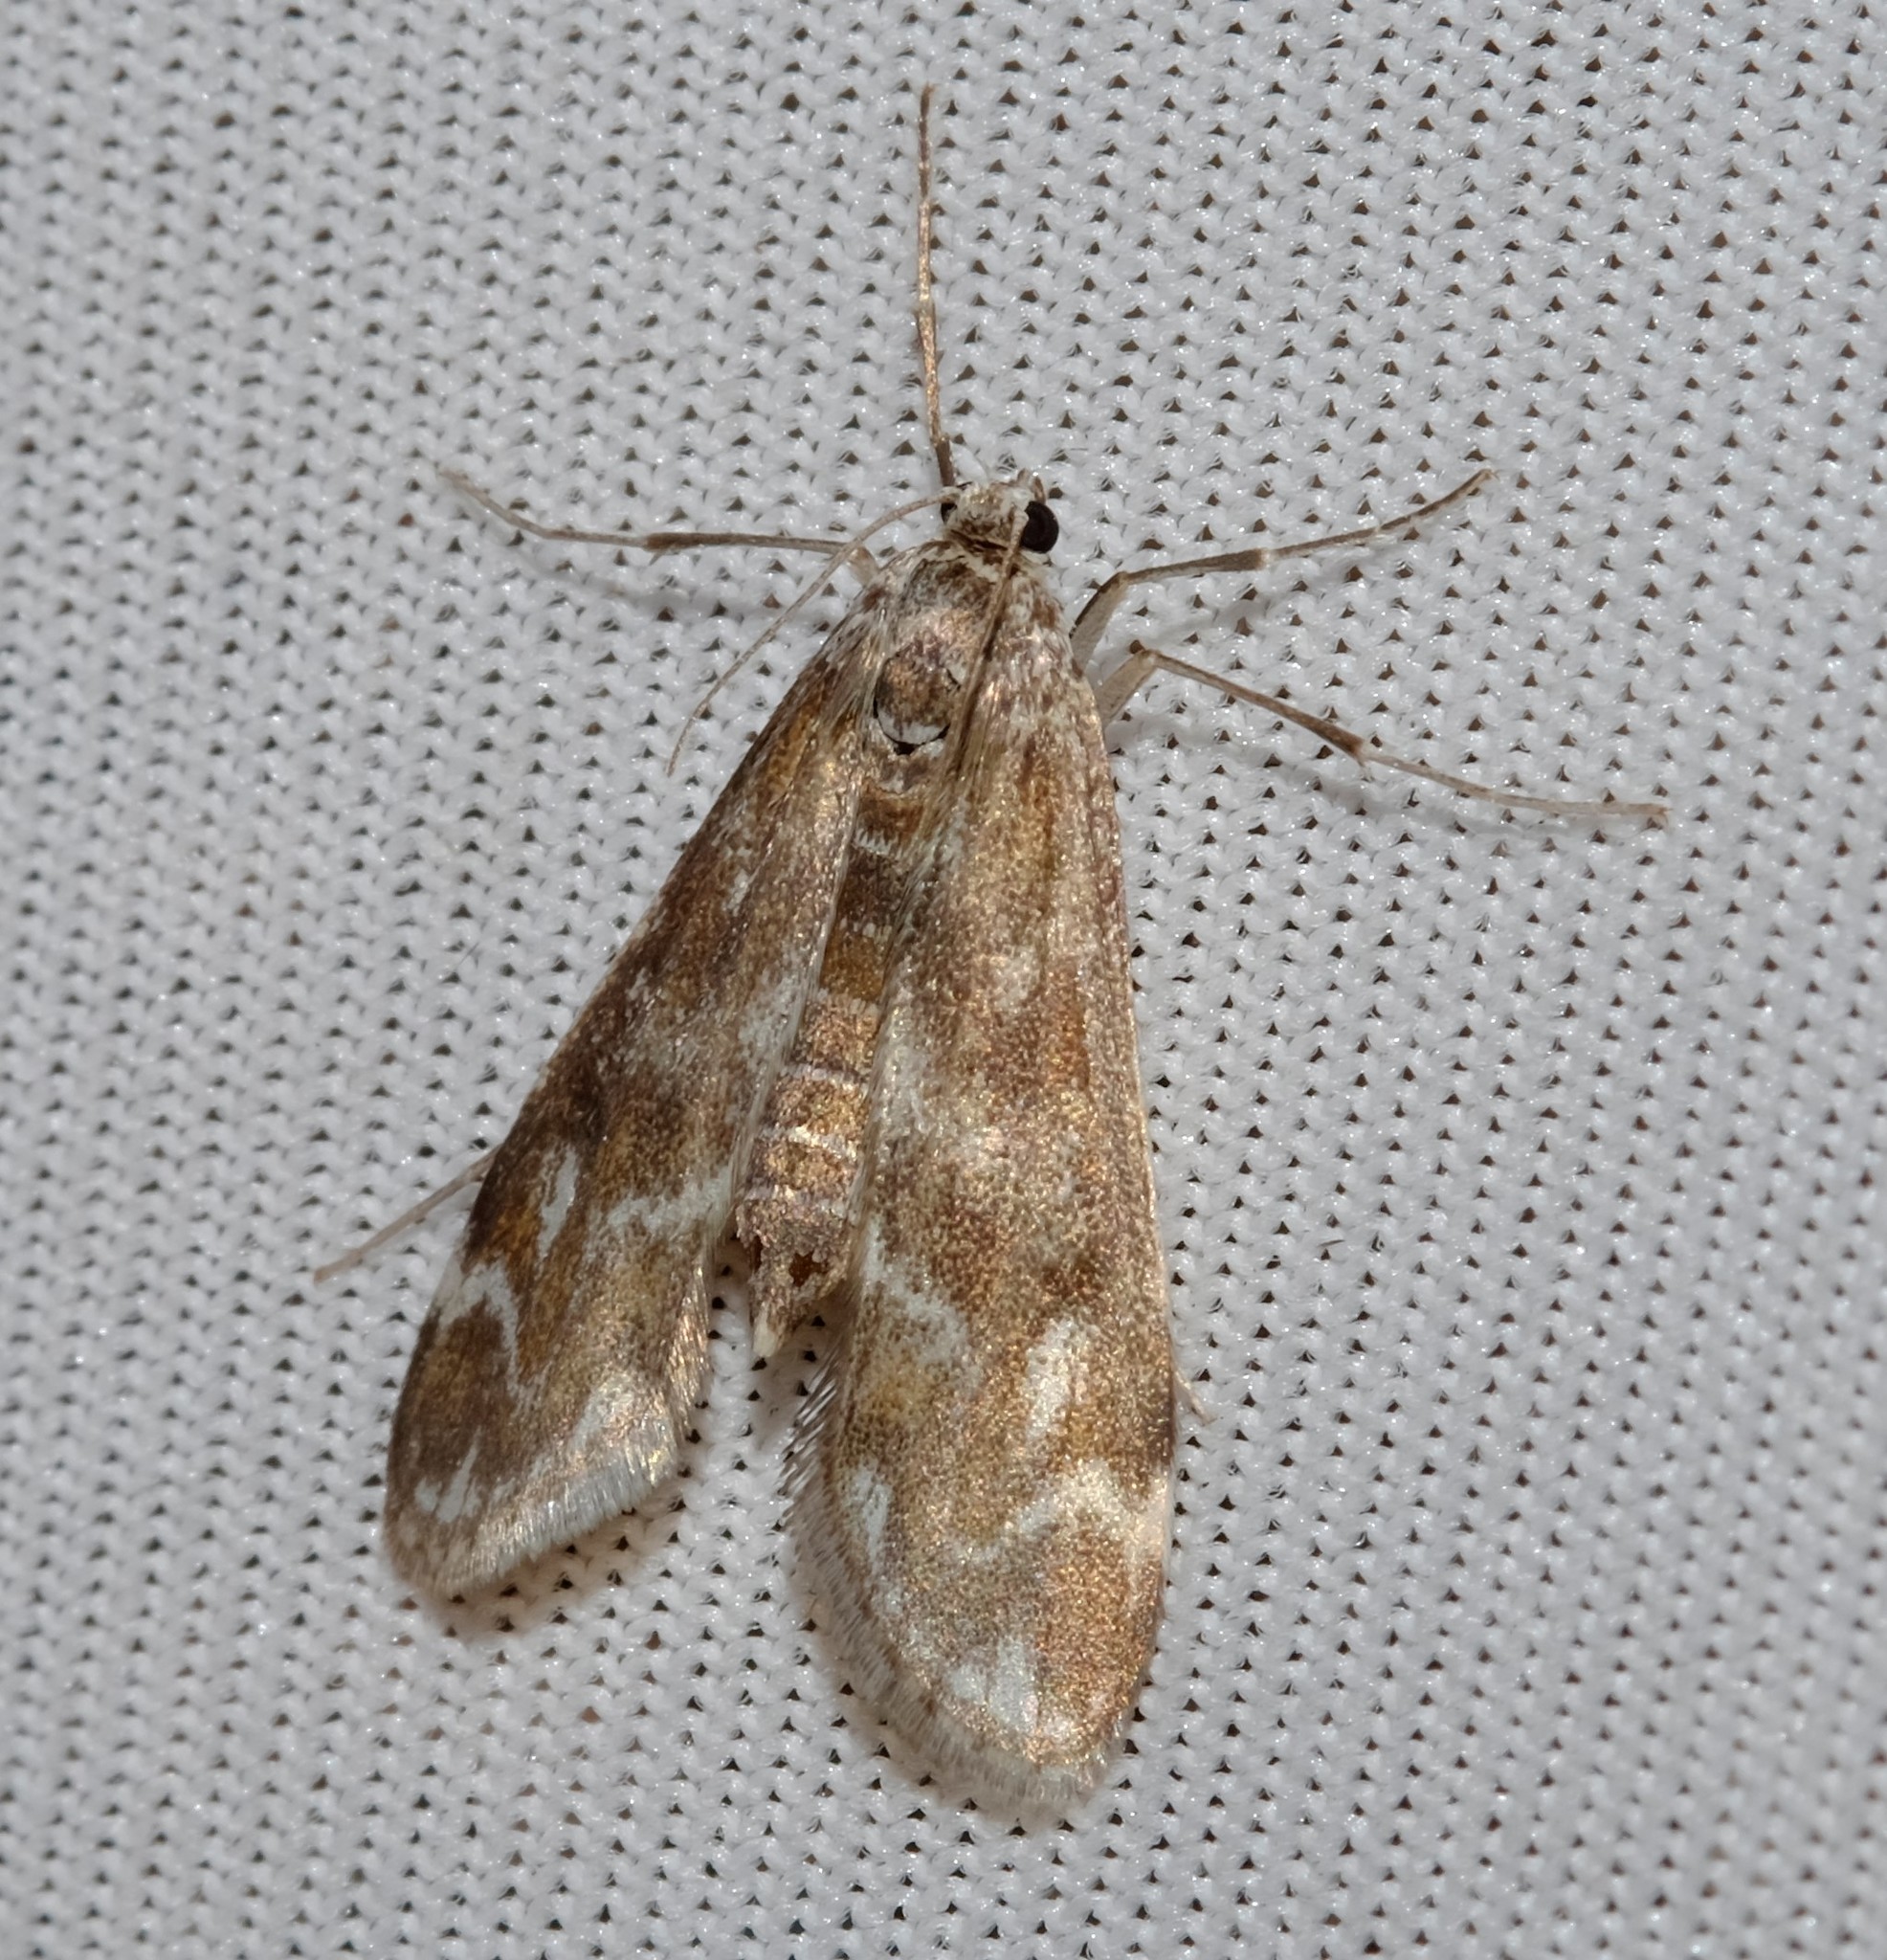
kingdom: Animalia
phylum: Arthropoda
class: Insecta
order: Lepidoptera
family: Crambidae
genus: Hygraula
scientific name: Hygraula nitens
